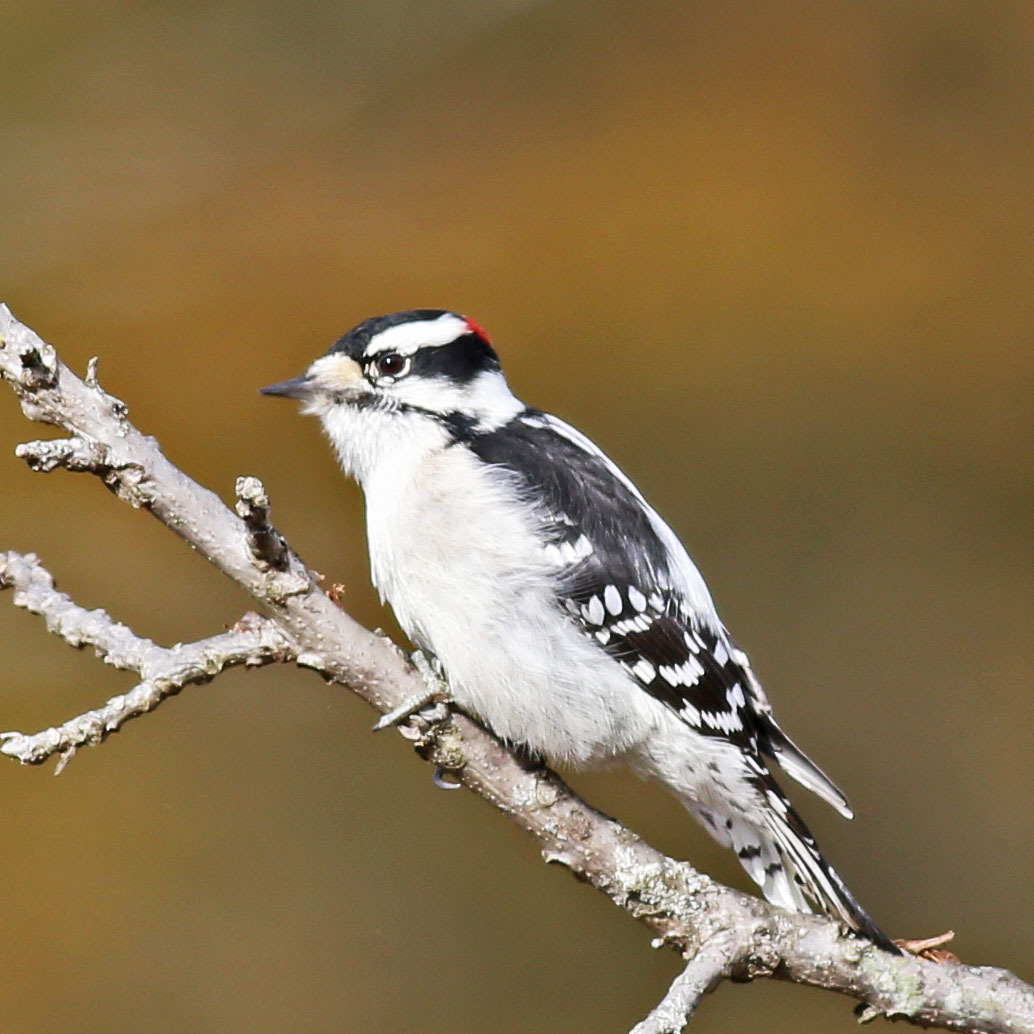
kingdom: Animalia
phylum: Chordata
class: Aves
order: Piciformes
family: Picidae
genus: Dryobates
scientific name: Dryobates pubescens
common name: Downy woodpecker
